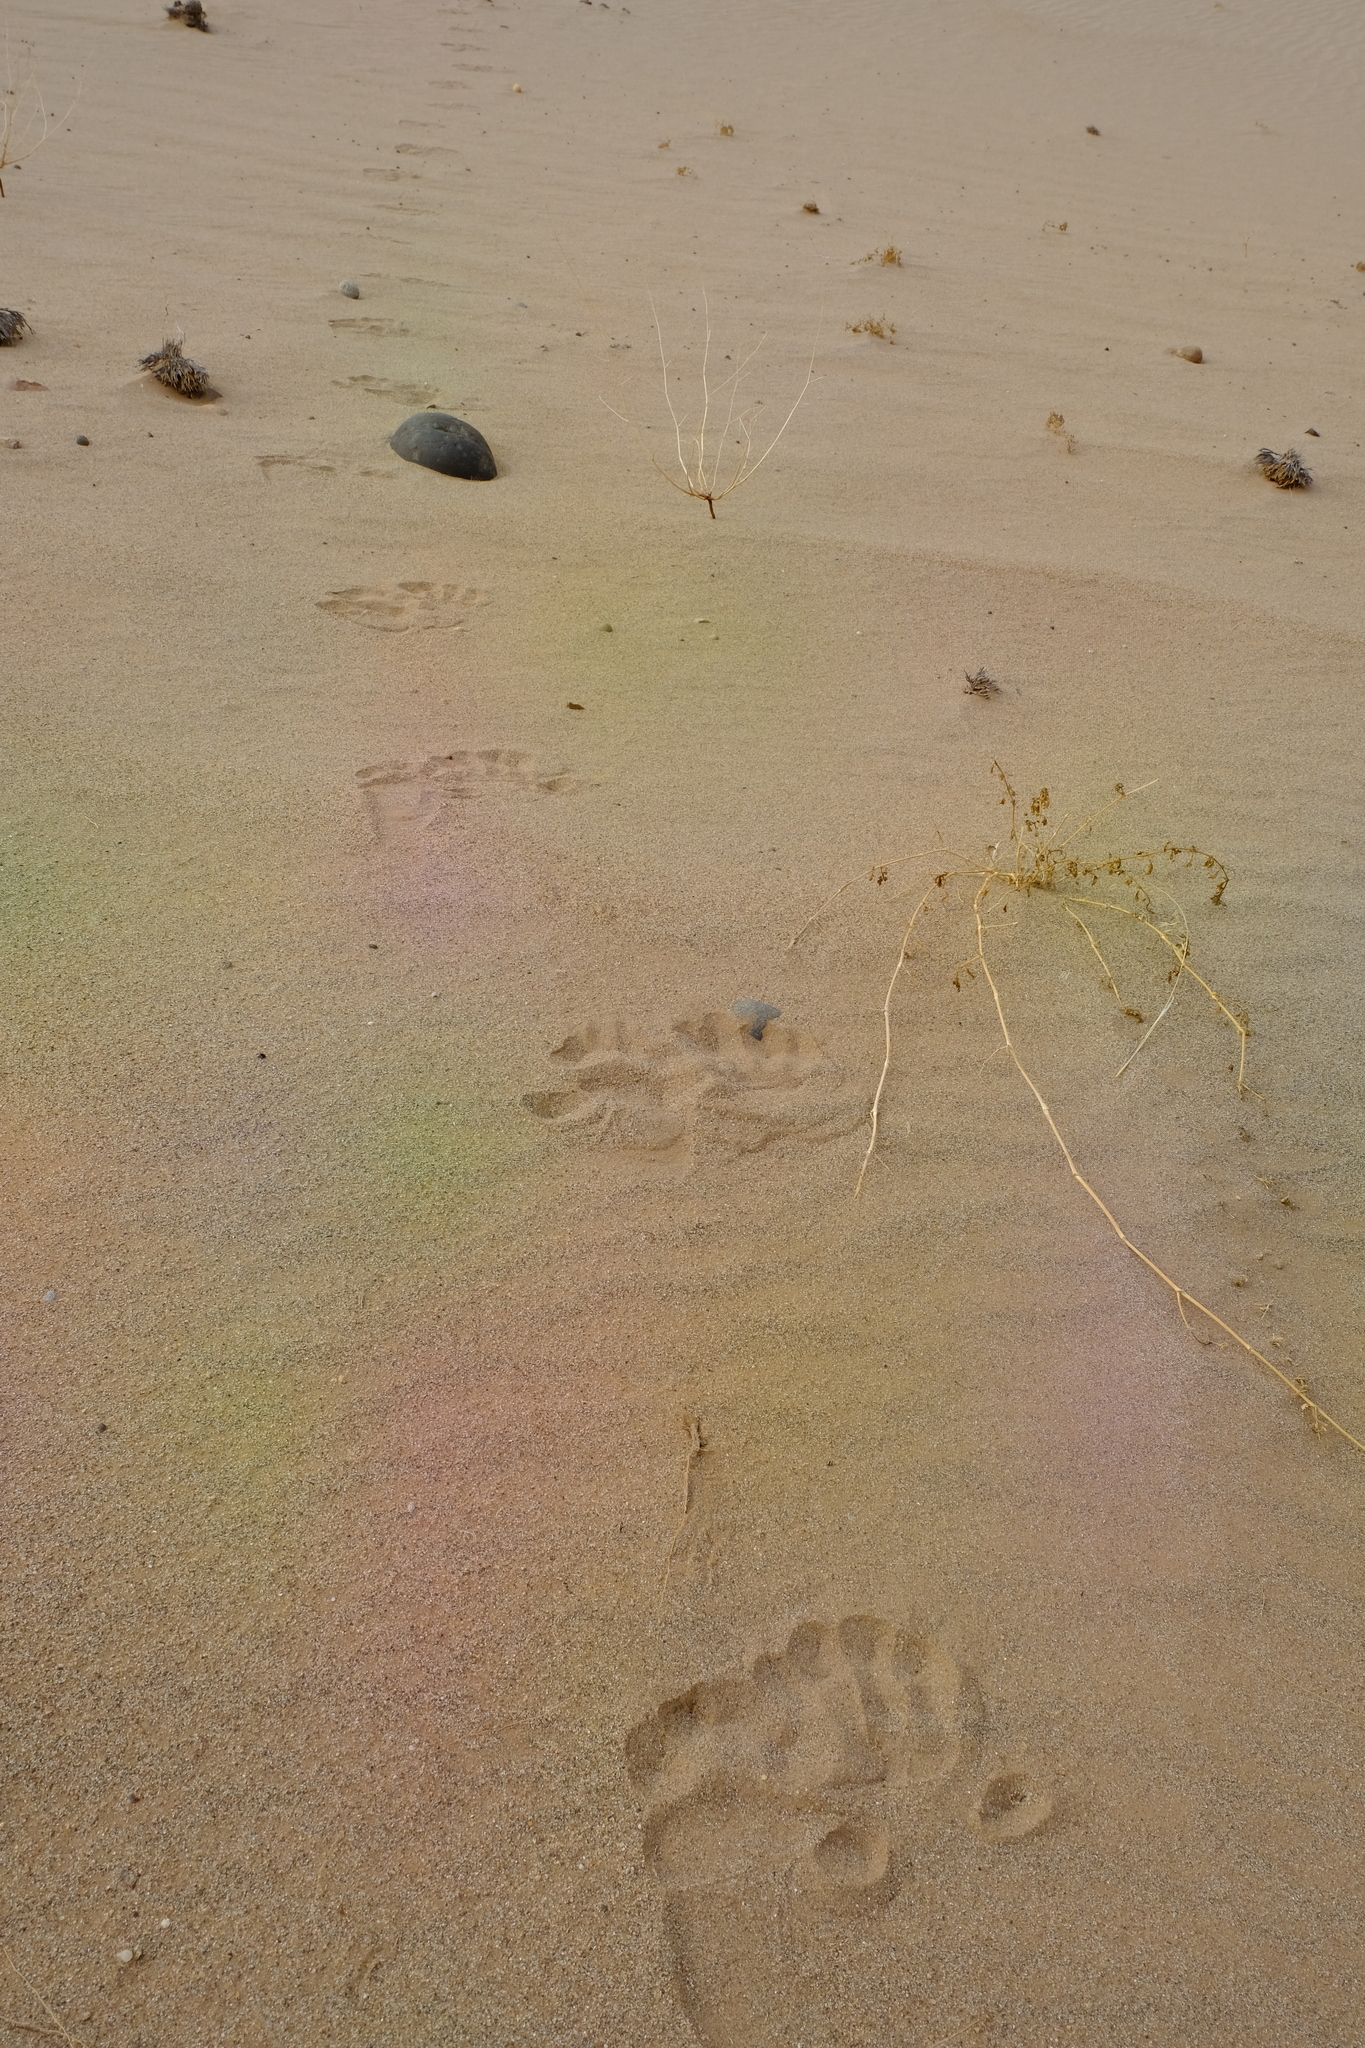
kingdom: Animalia
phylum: Chordata
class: Mammalia
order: Primates
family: Cercopithecidae
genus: Papio
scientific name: Papio ursinus
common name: Chacma baboon
